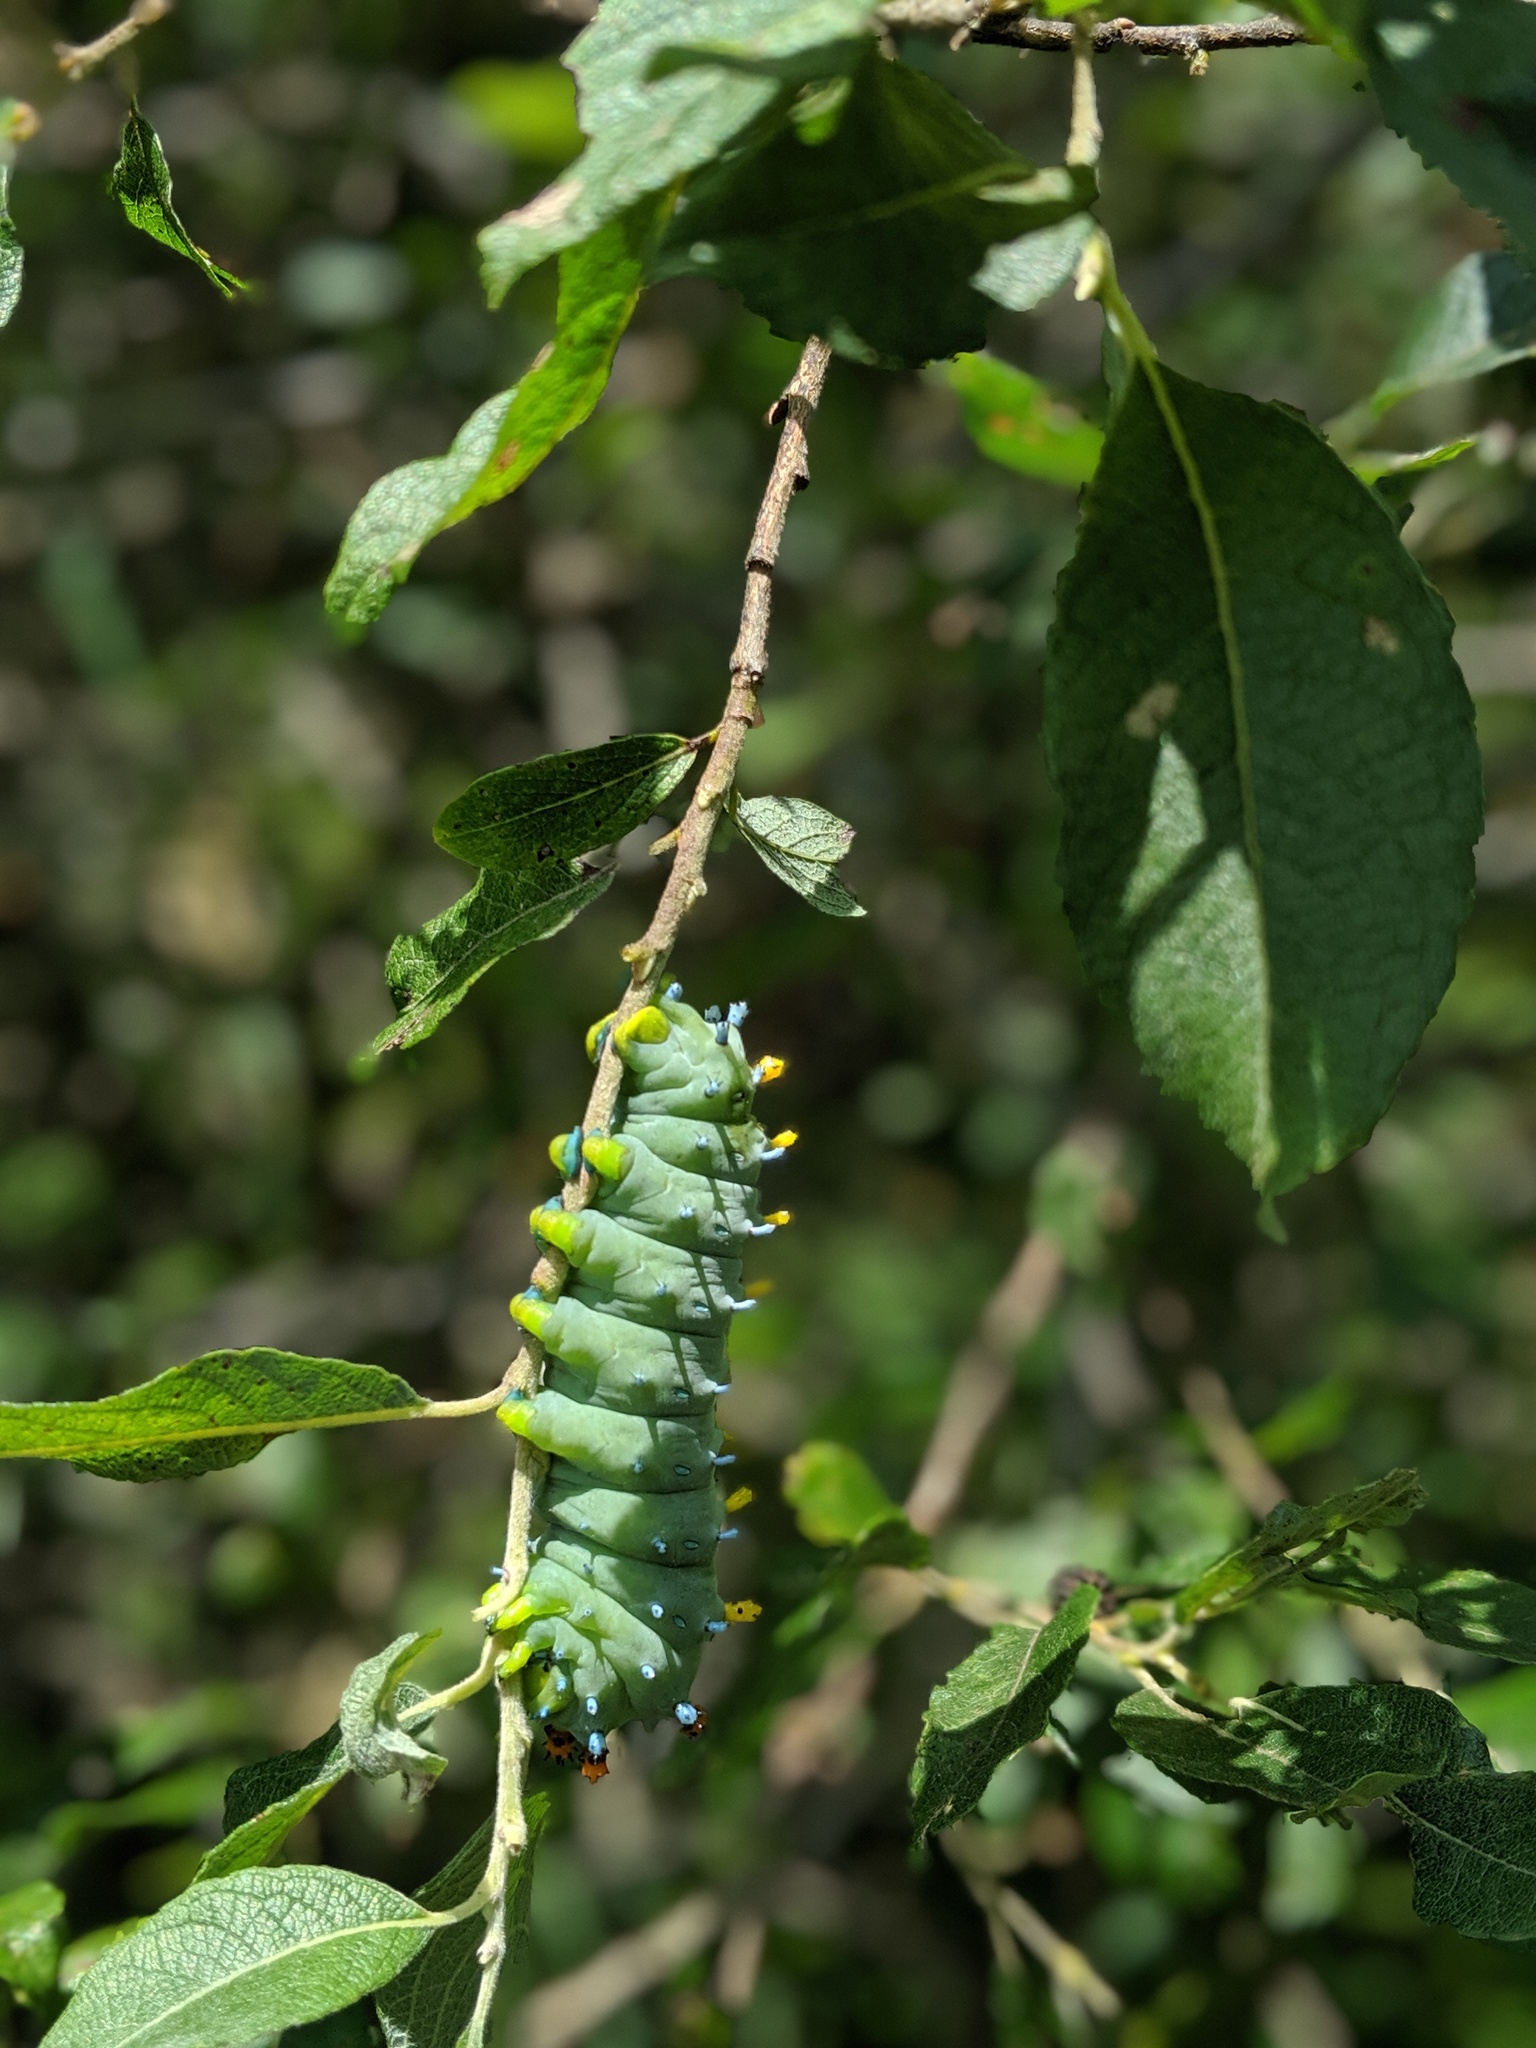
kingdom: Animalia
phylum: Arthropoda
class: Insecta
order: Lepidoptera
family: Saturniidae
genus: Hyalophora
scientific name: Hyalophora cecropia
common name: Cecropia silkmoth
